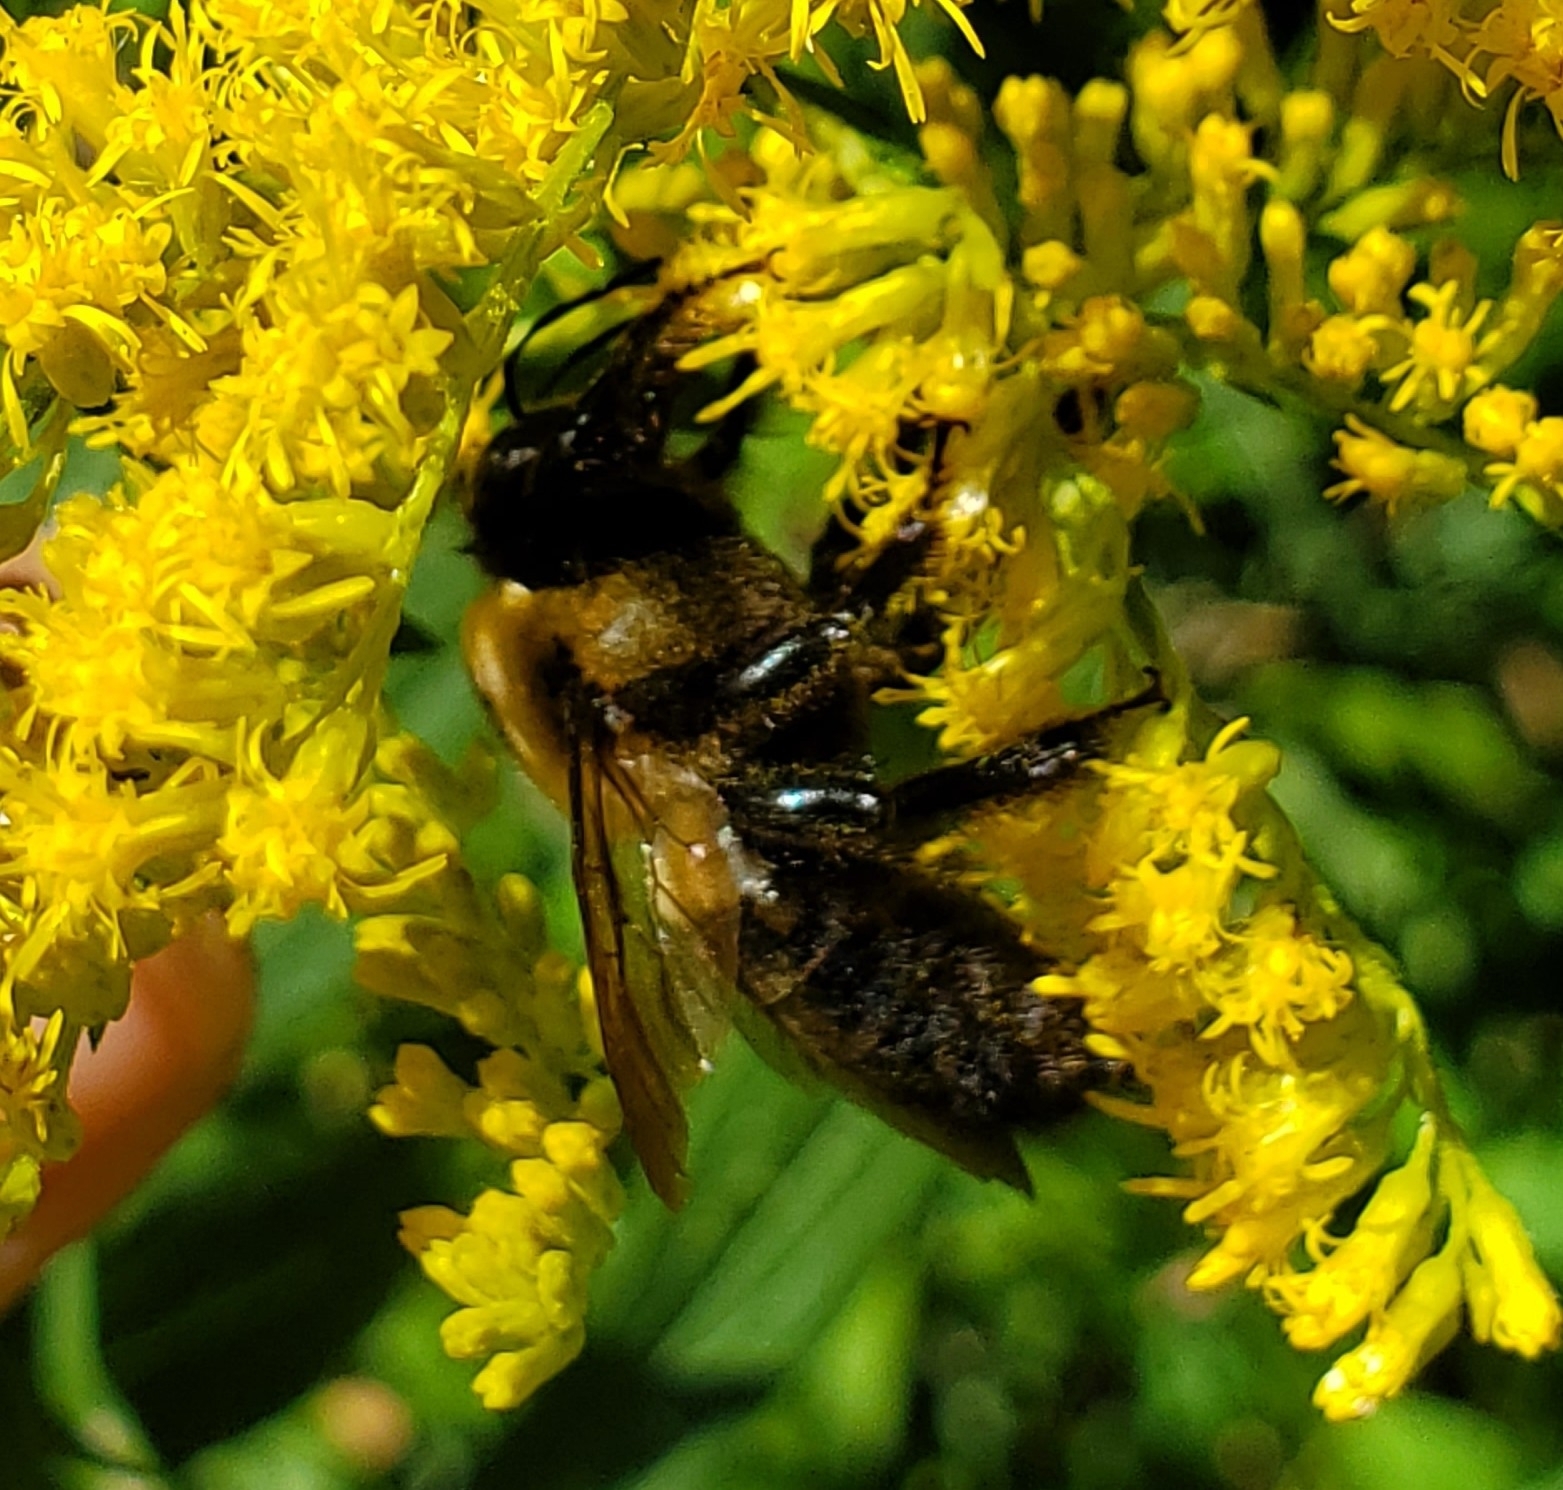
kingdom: Animalia
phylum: Arthropoda
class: Insecta
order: Hymenoptera
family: Apidae
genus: Xylocopa
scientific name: Xylocopa virginica
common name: Carpenter bee
